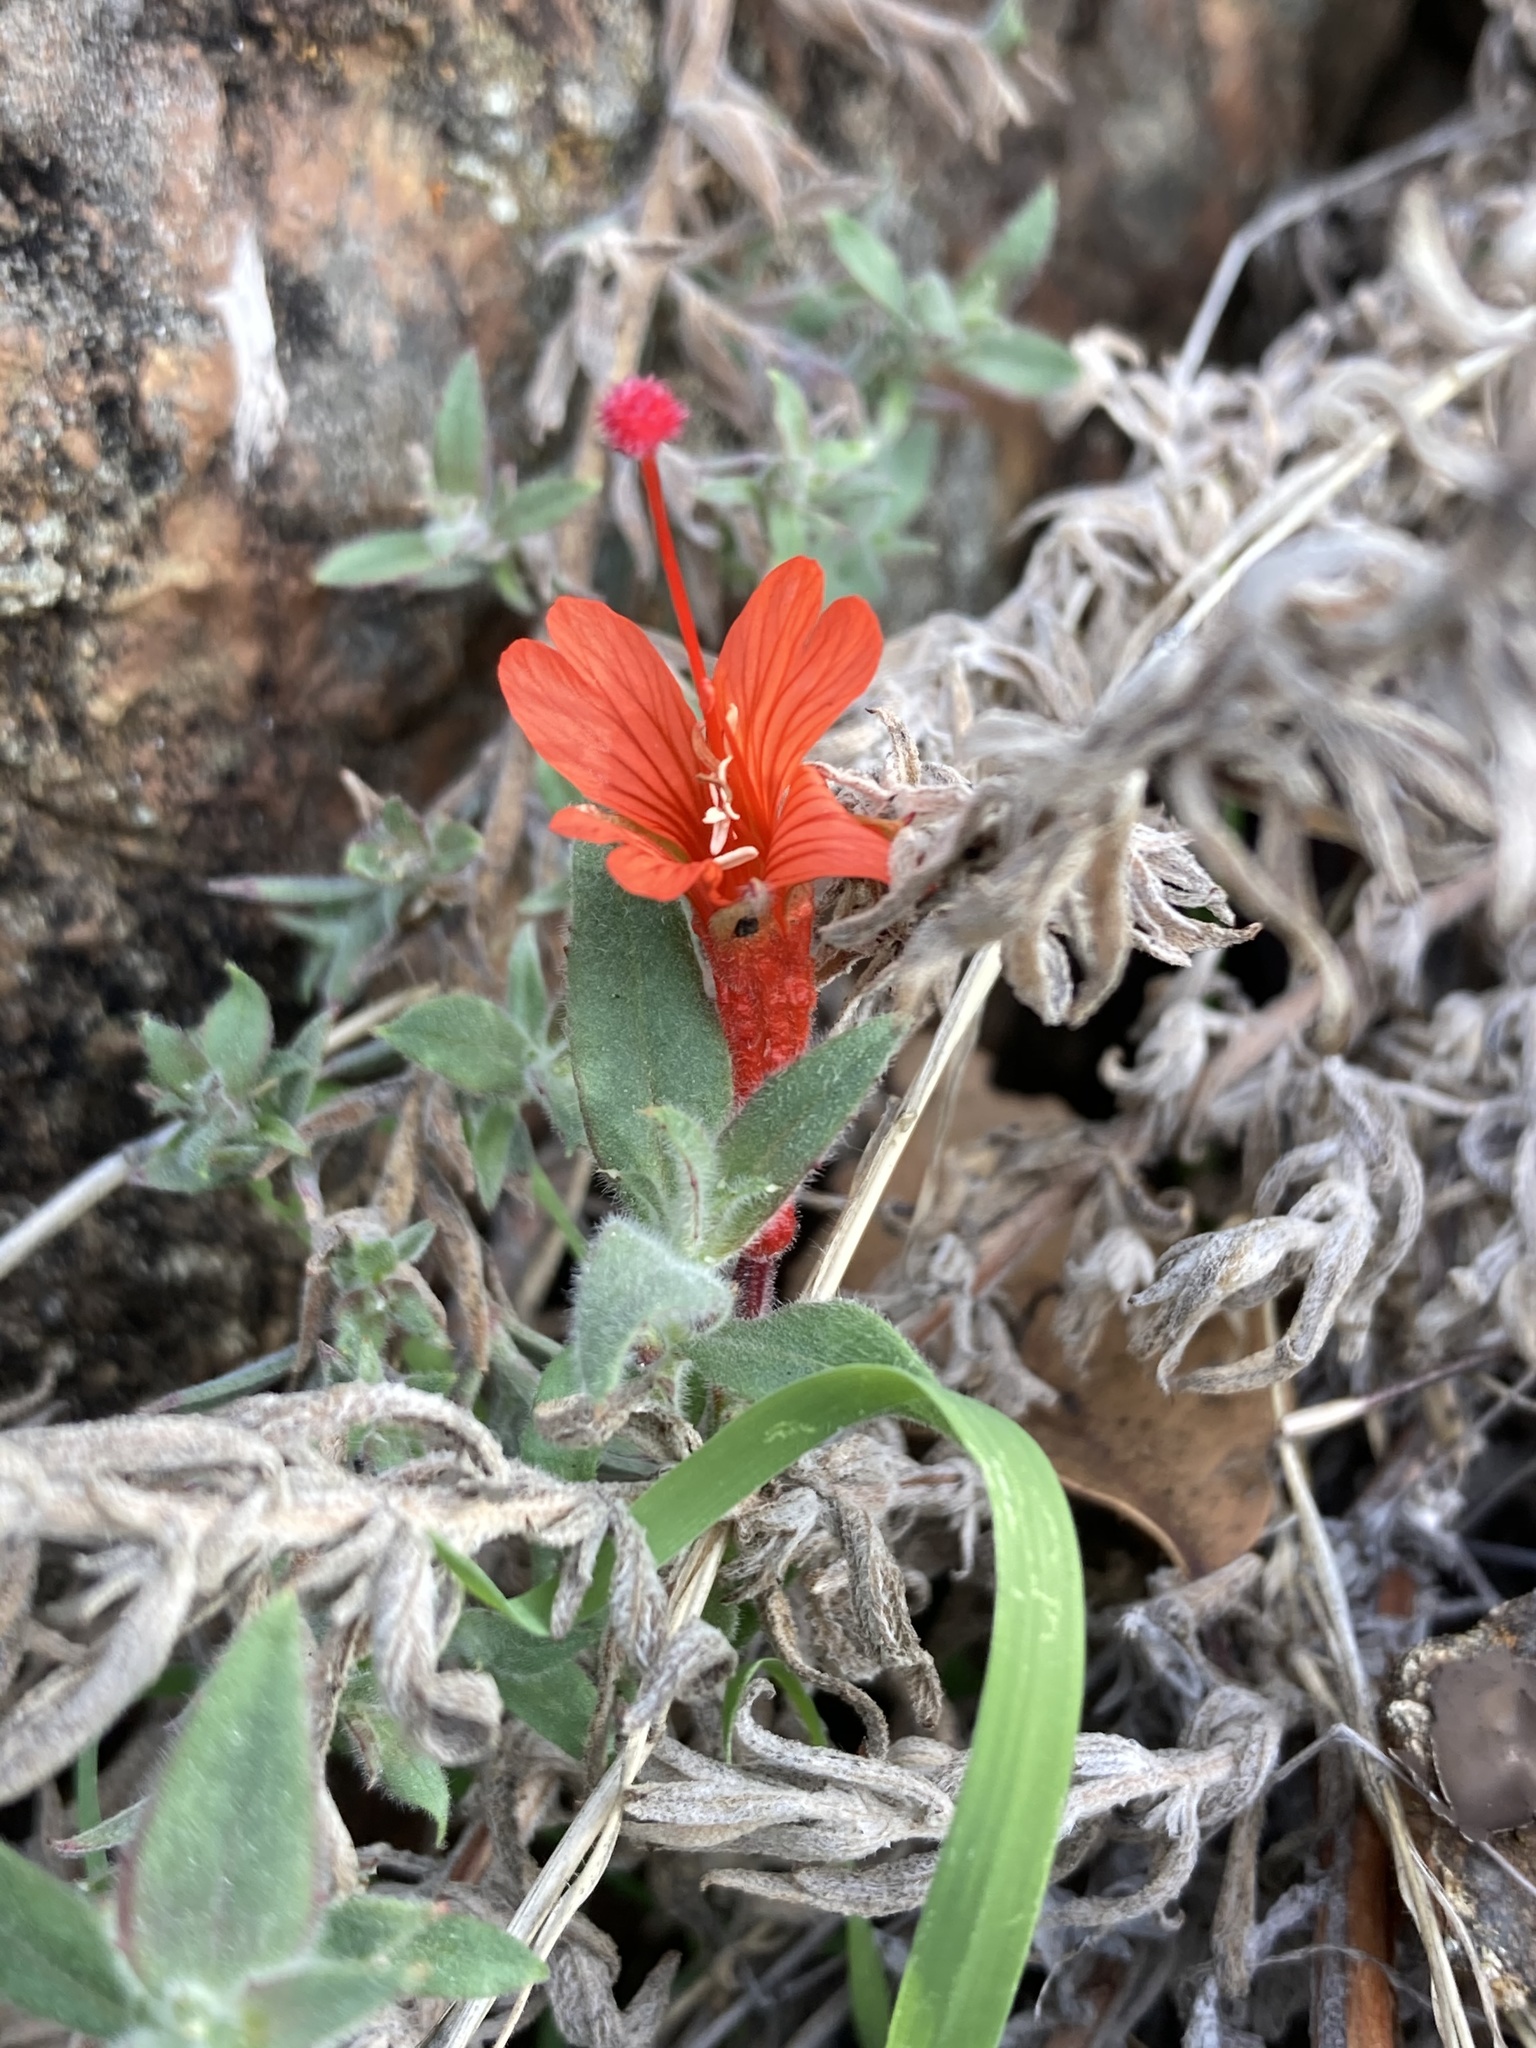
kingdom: Plantae
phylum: Tracheophyta
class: Magnoliopsida
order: Myrtales
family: Onagraceae
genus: Epilobium
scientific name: Epilobium canum
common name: California-fuchsia
